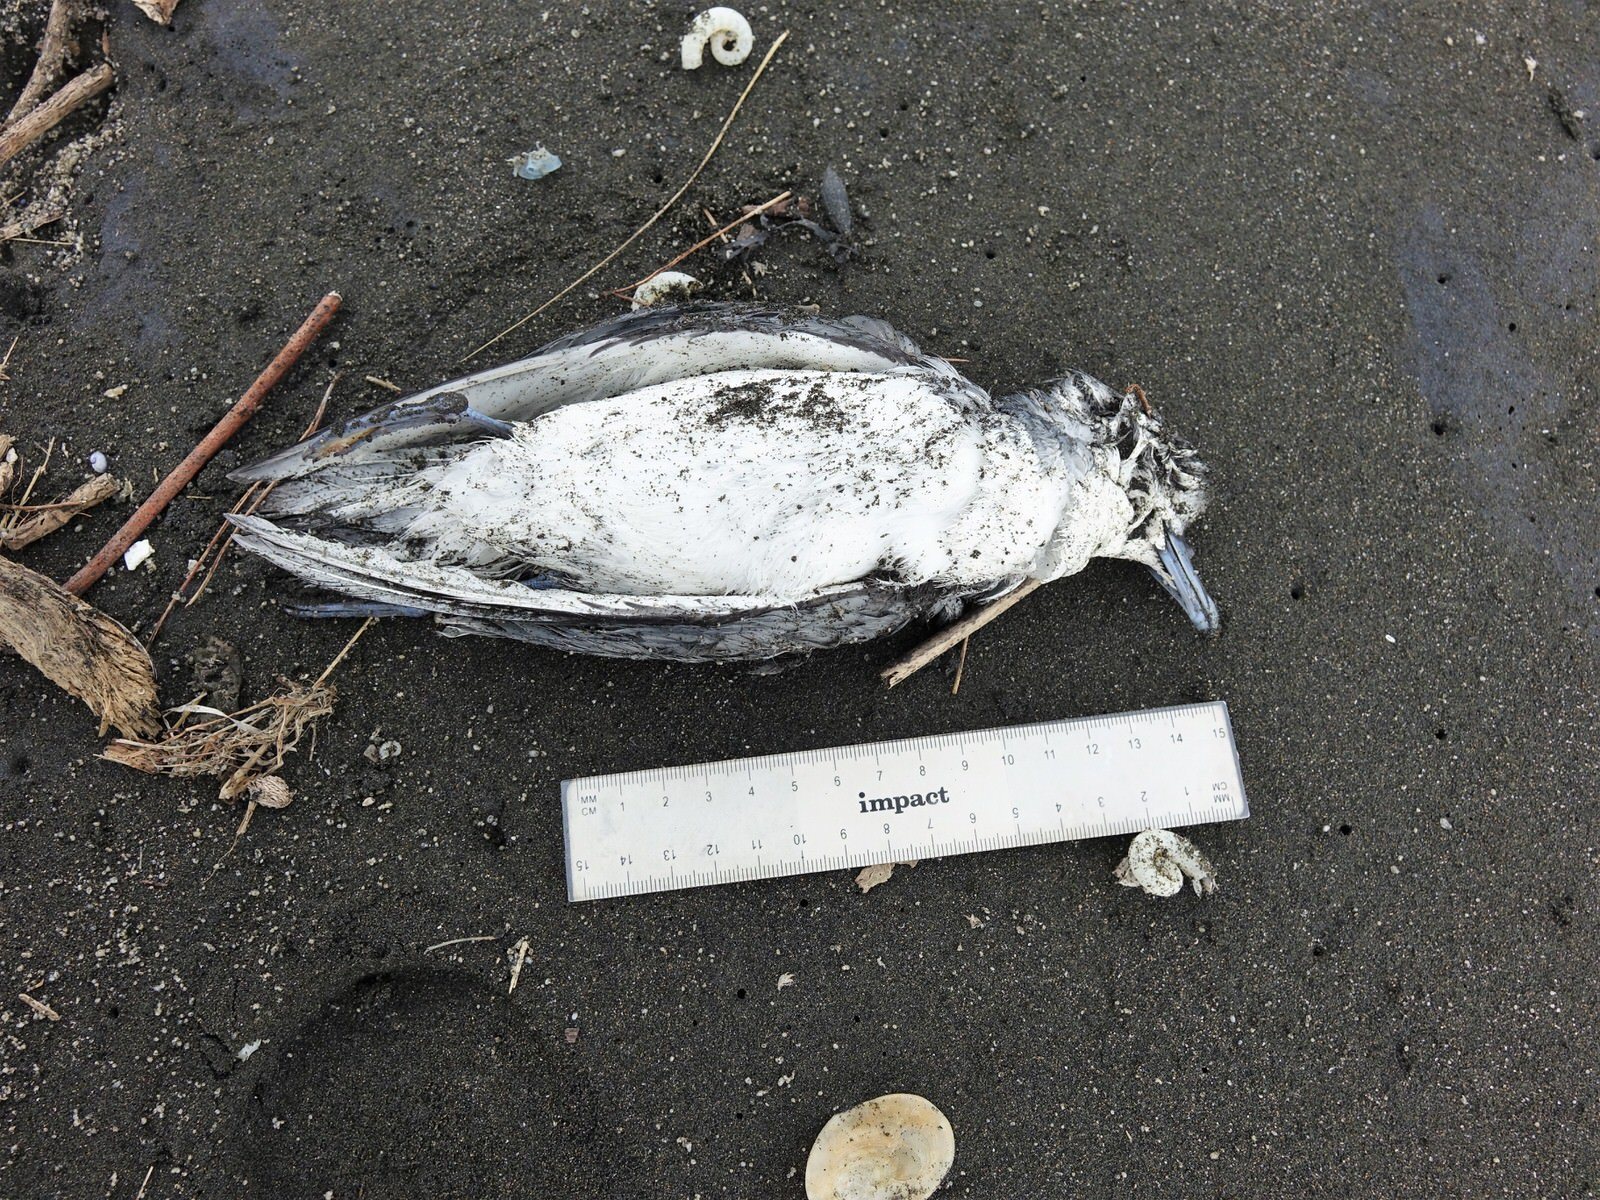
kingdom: Animalia
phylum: Chordata
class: Aves
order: Procellariiformes
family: Procellariidae
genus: Pachyptila
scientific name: Pachyptila turtur
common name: Fairy prion
